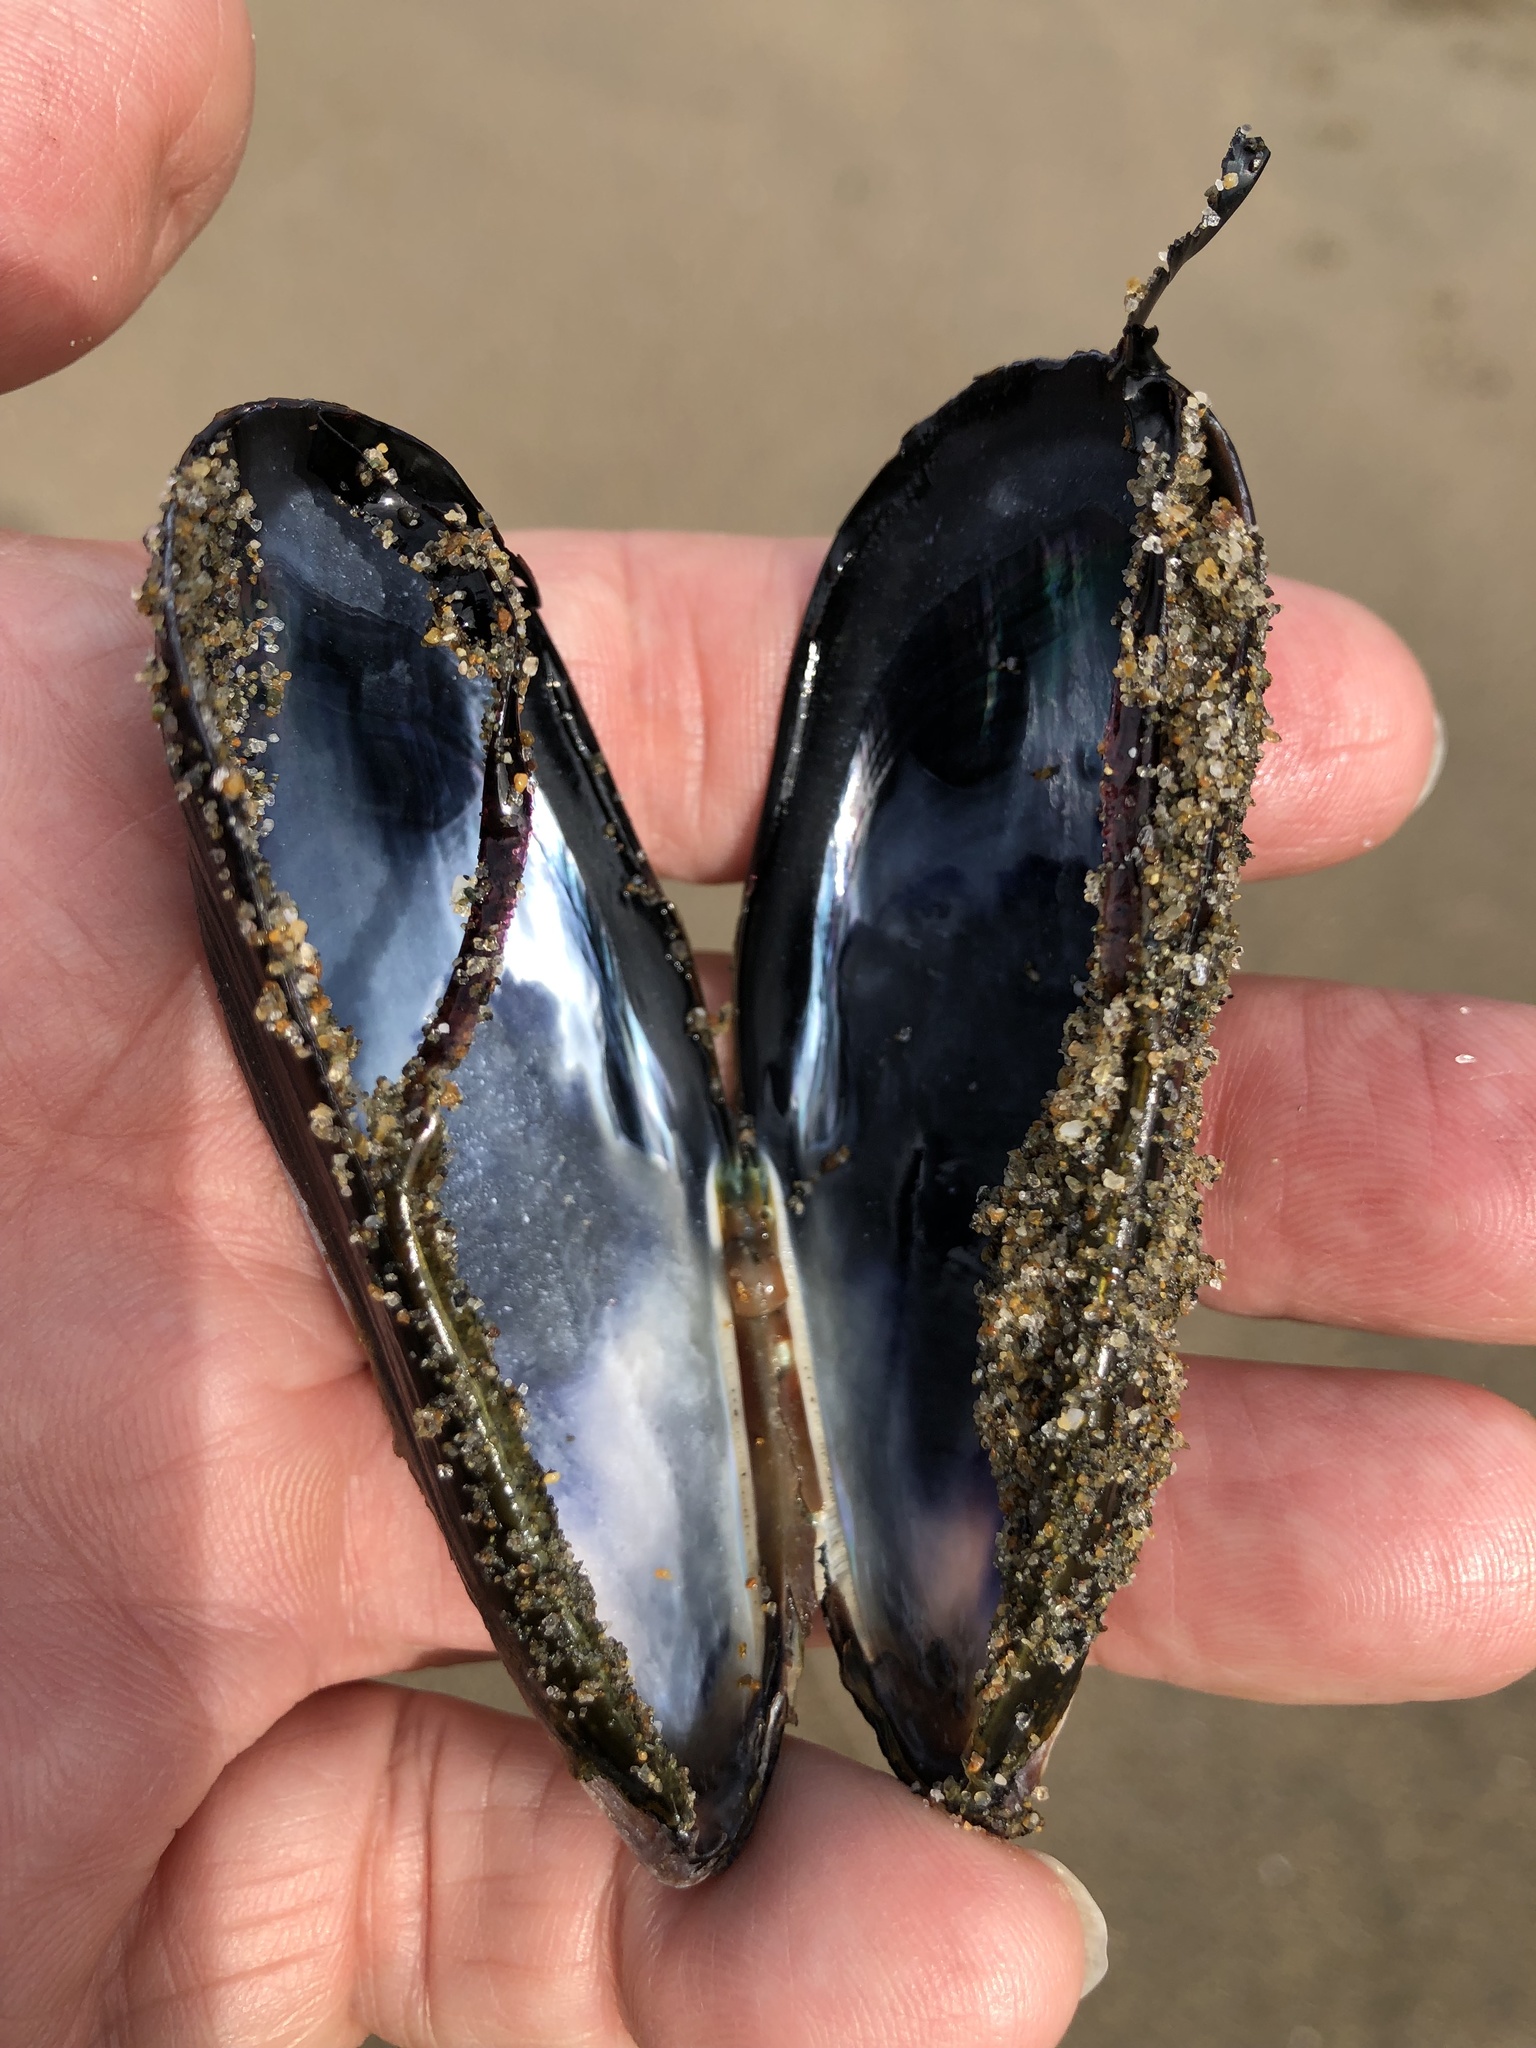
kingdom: Animalia
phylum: Mollusca
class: Bivalvia
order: Mytilida
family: Mytilidae
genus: Mytilus
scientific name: Mytilus californianus
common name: California mussel
